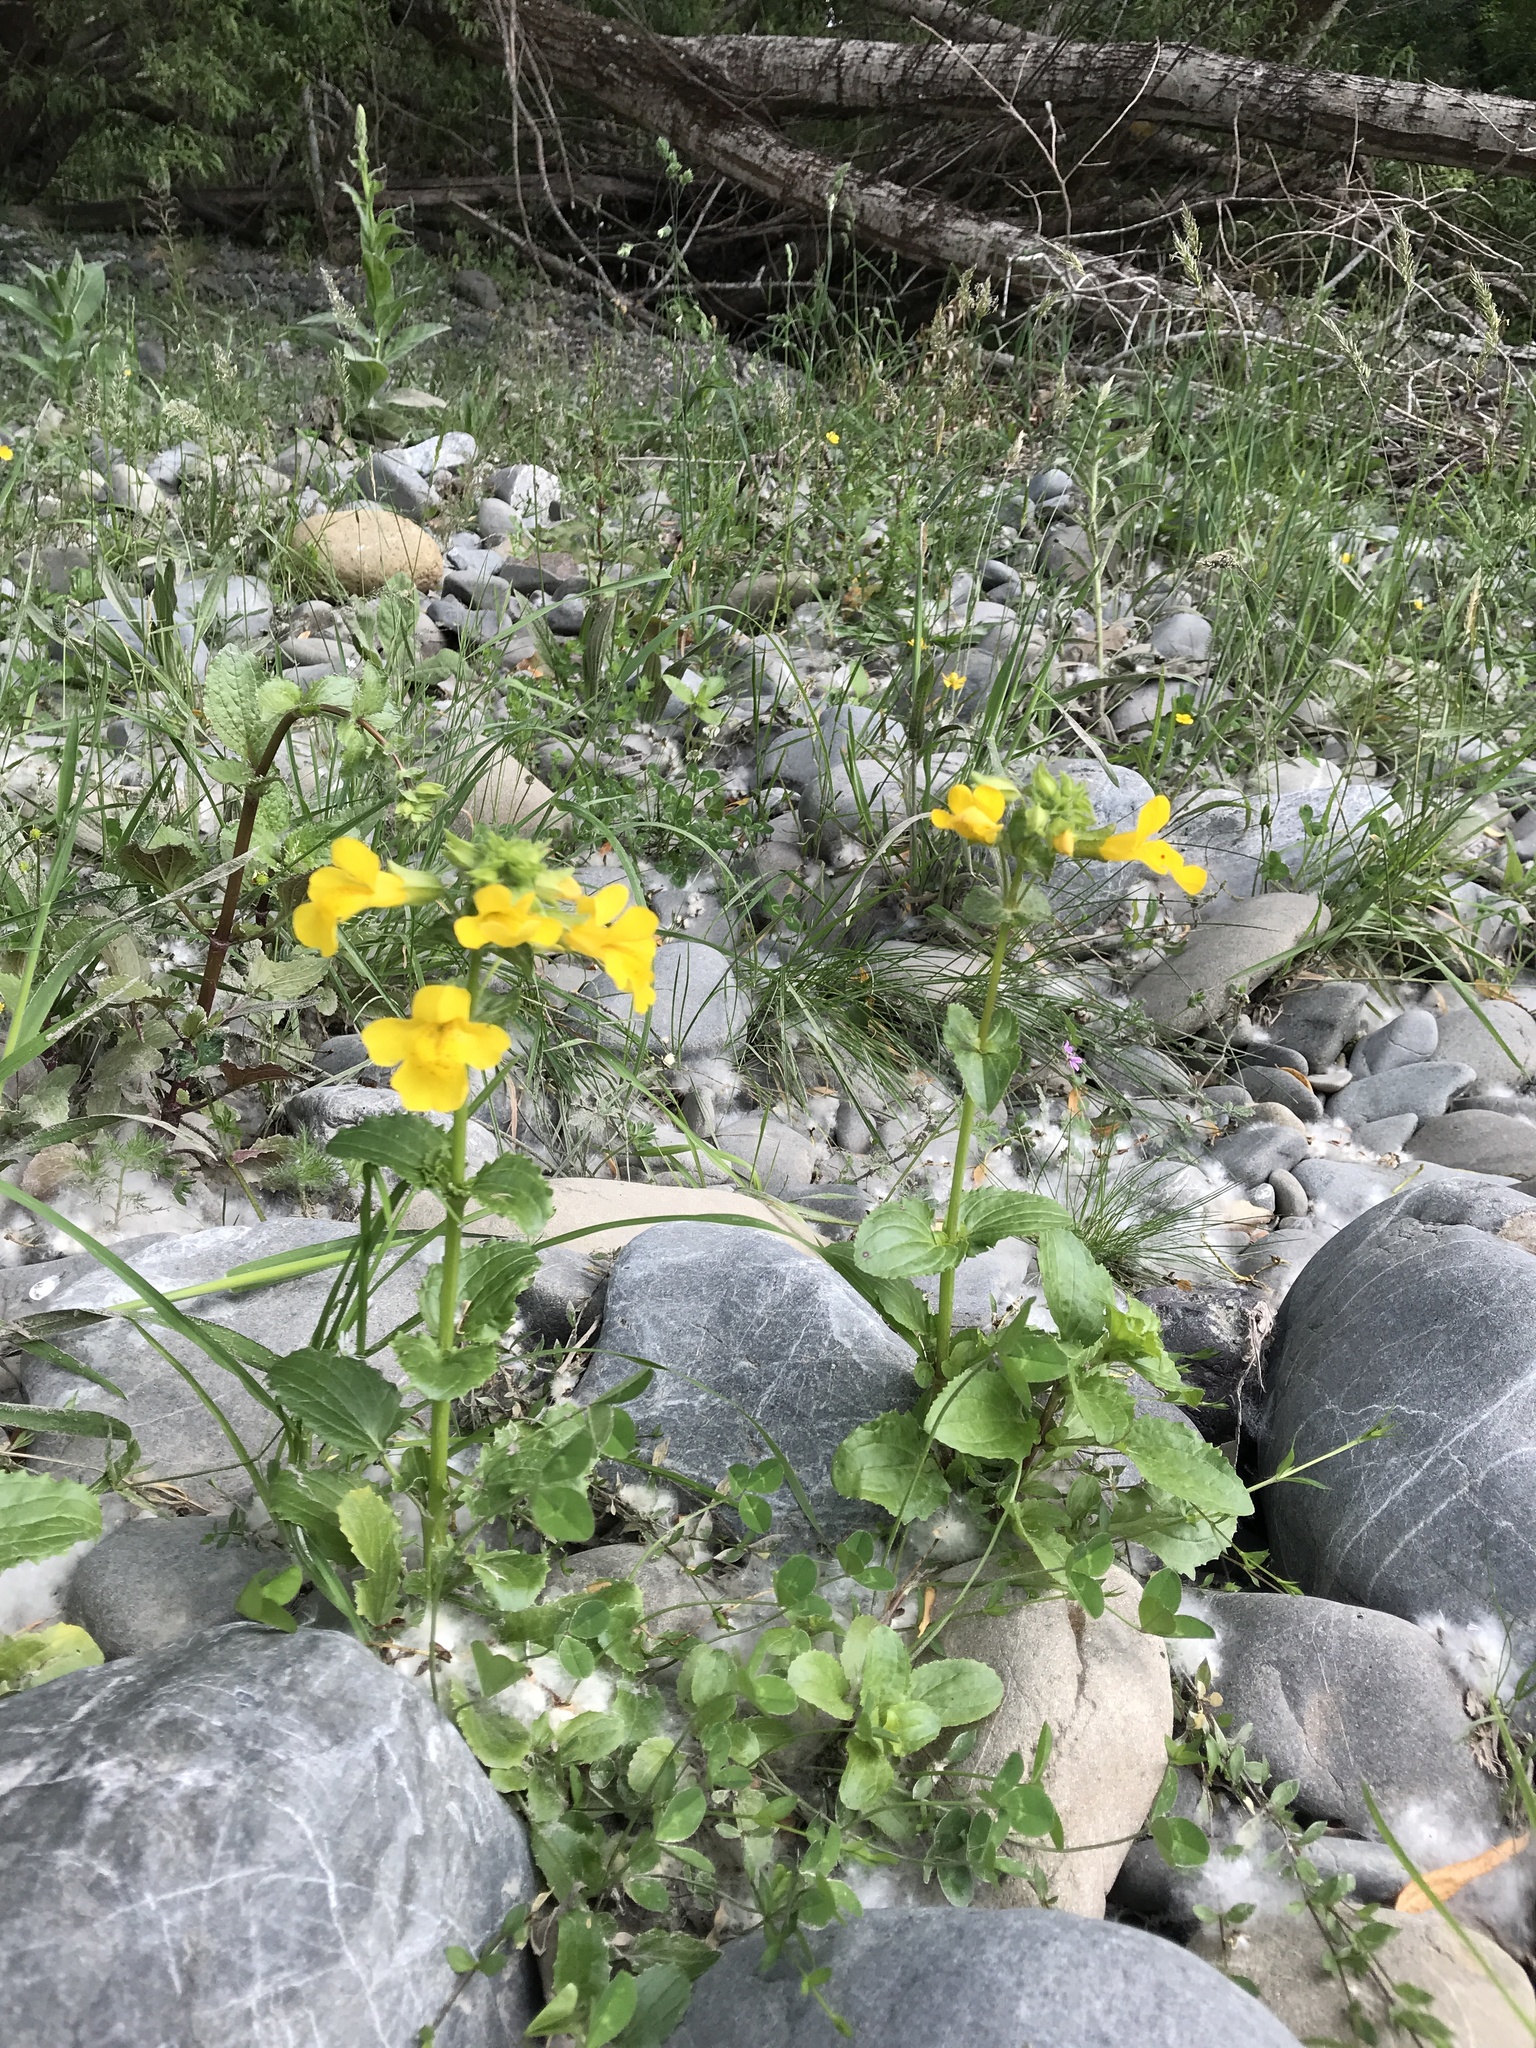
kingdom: Plantae
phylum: Tracheophyta
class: Magnoliopsida
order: Lamiales
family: Phrymaceae
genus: Erythranthe
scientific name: Erythranthe guttata
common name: Monkeyflower
